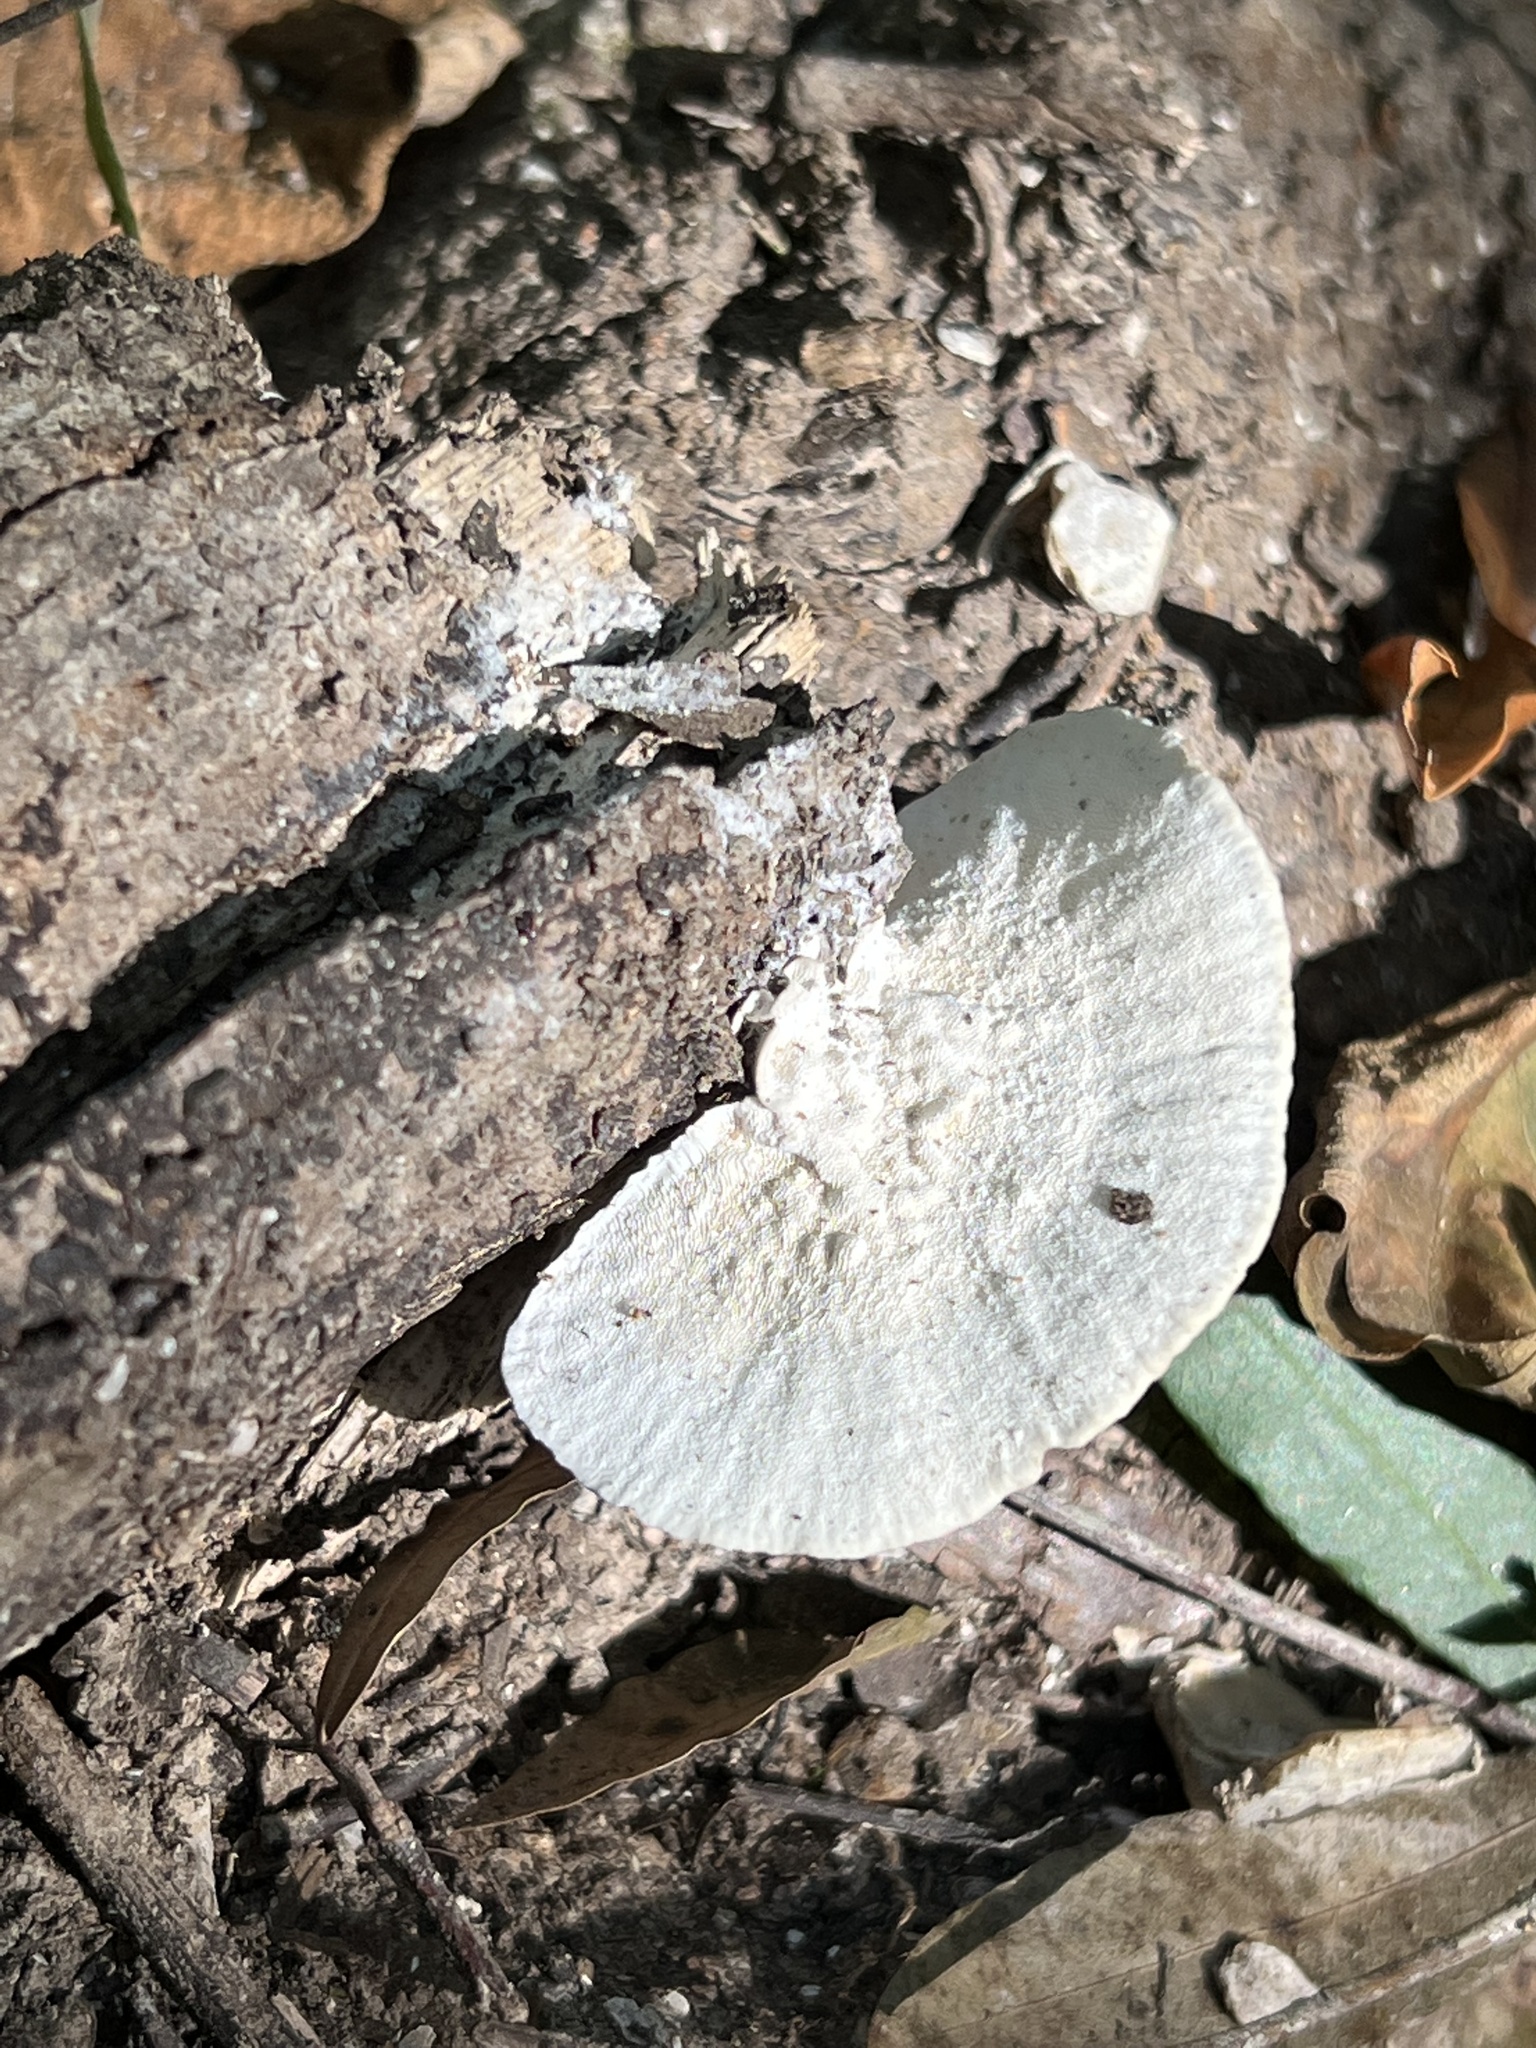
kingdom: Fungi
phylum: Basidiomycota
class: Agaricomycetes
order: Polyporales
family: Polyporaceae
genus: Trametes
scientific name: Trametes versicolor
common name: Turkeytail
